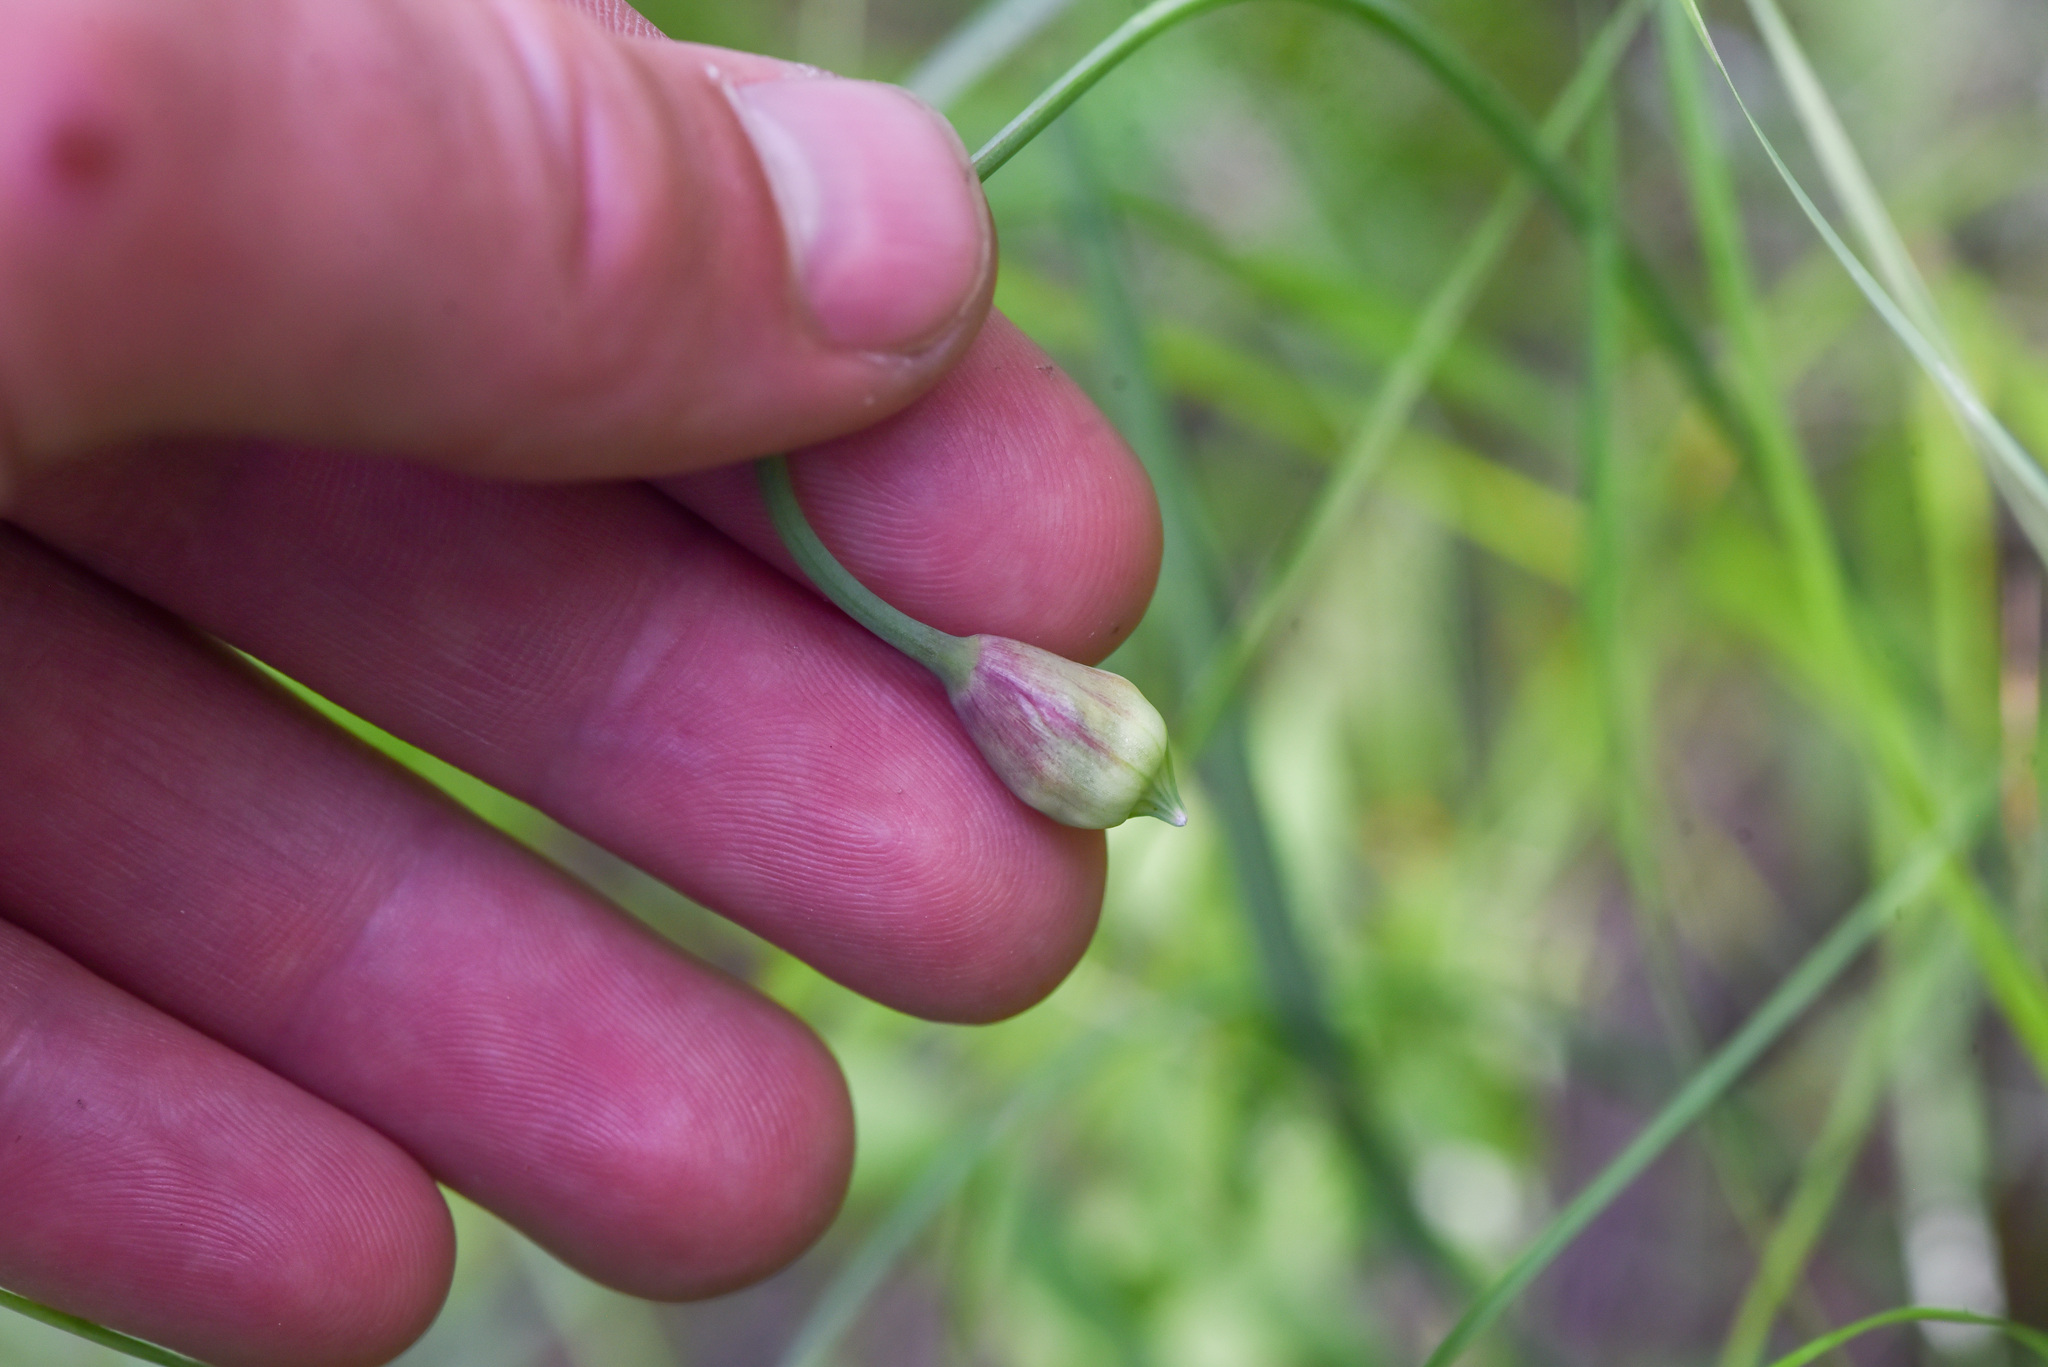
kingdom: Plantae
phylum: Tracheophyta
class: Liliopsida
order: Asparagales
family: Amaryllidaceae
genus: Allium
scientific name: Allium cernuum
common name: Nodding onion
